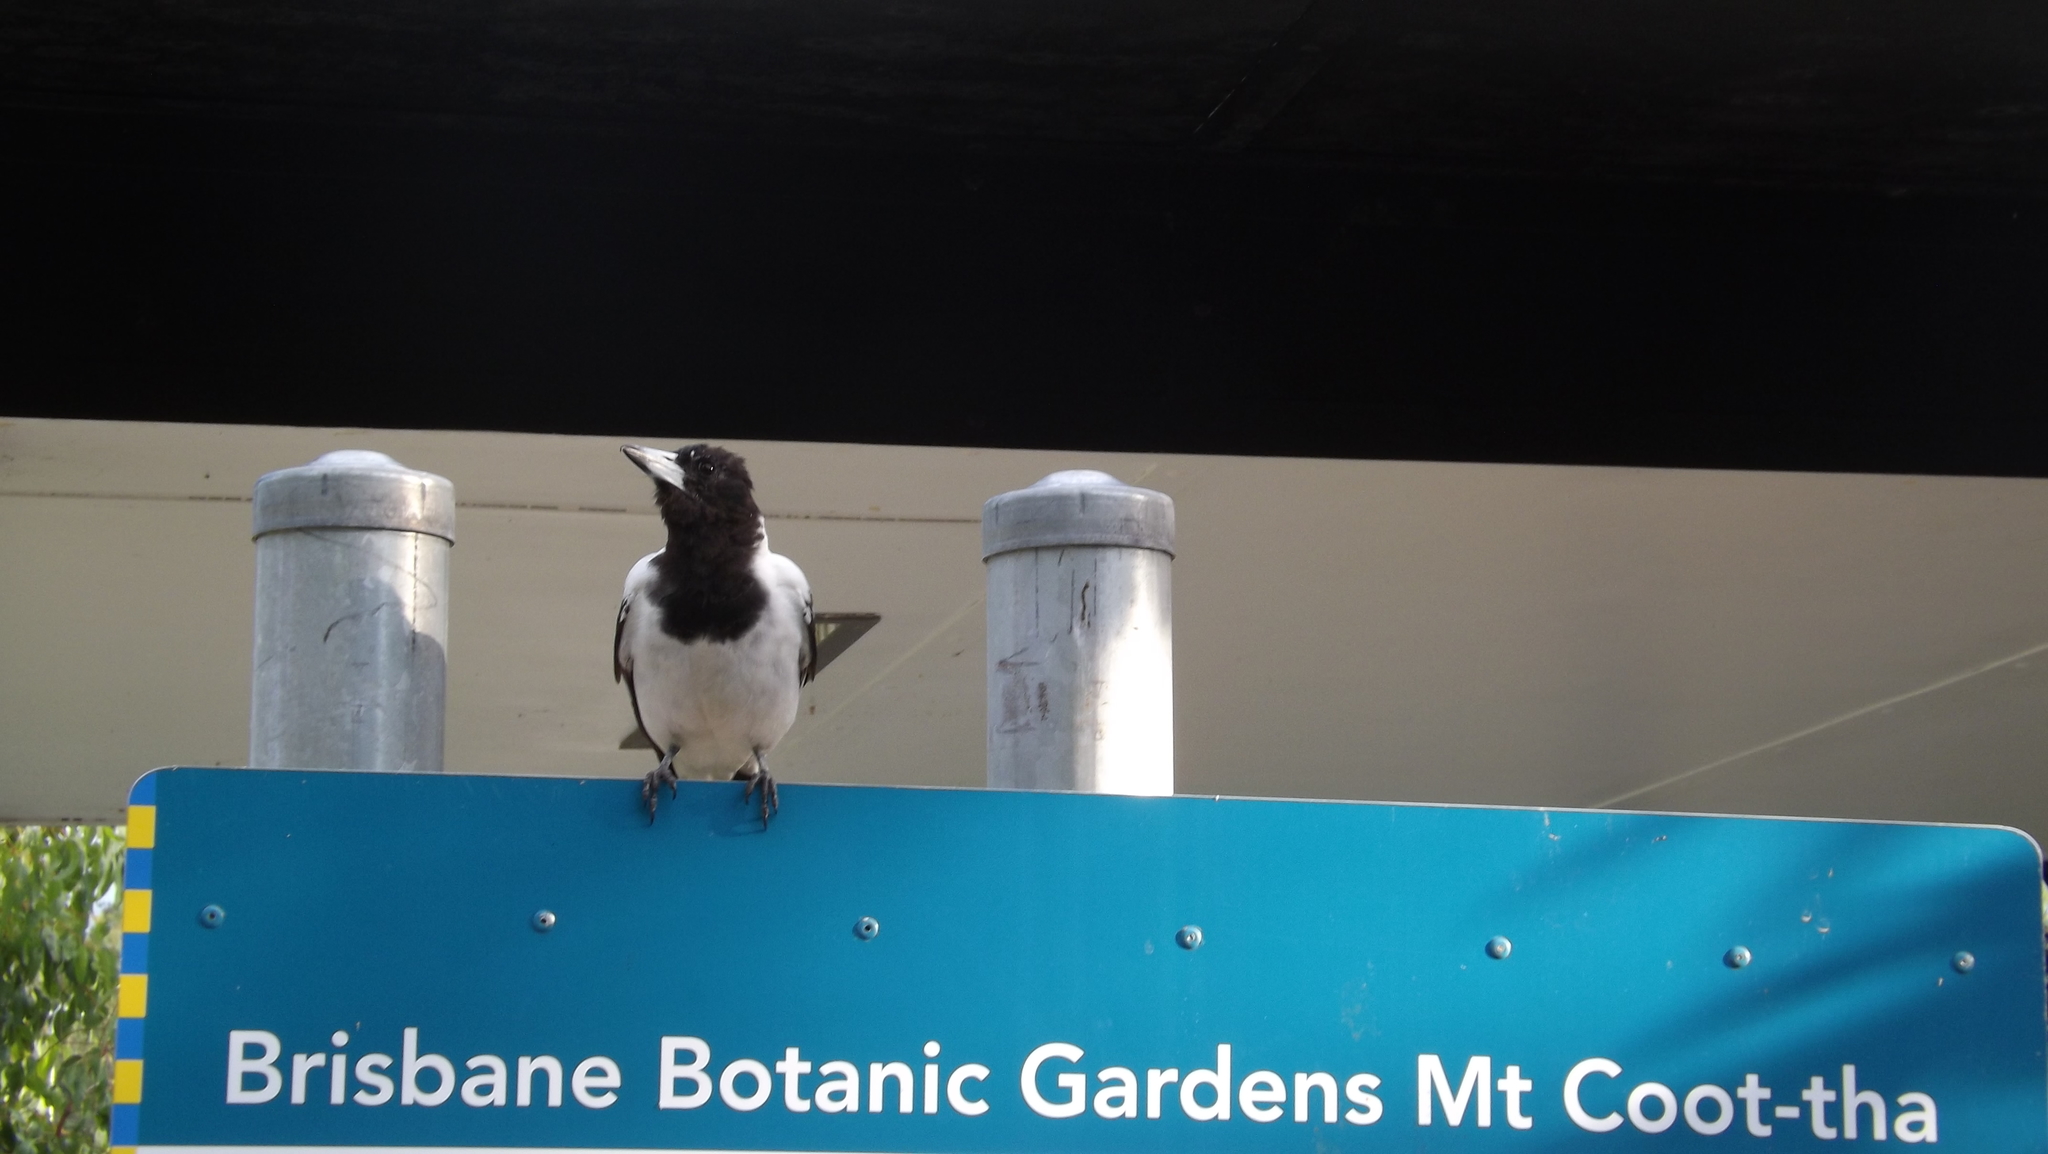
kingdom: Animalia
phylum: Chordata
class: Aves
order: Passeriformes
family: Cracticidae
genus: Cracticus
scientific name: Cracticus nigrogularis
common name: Pied butcherbird
